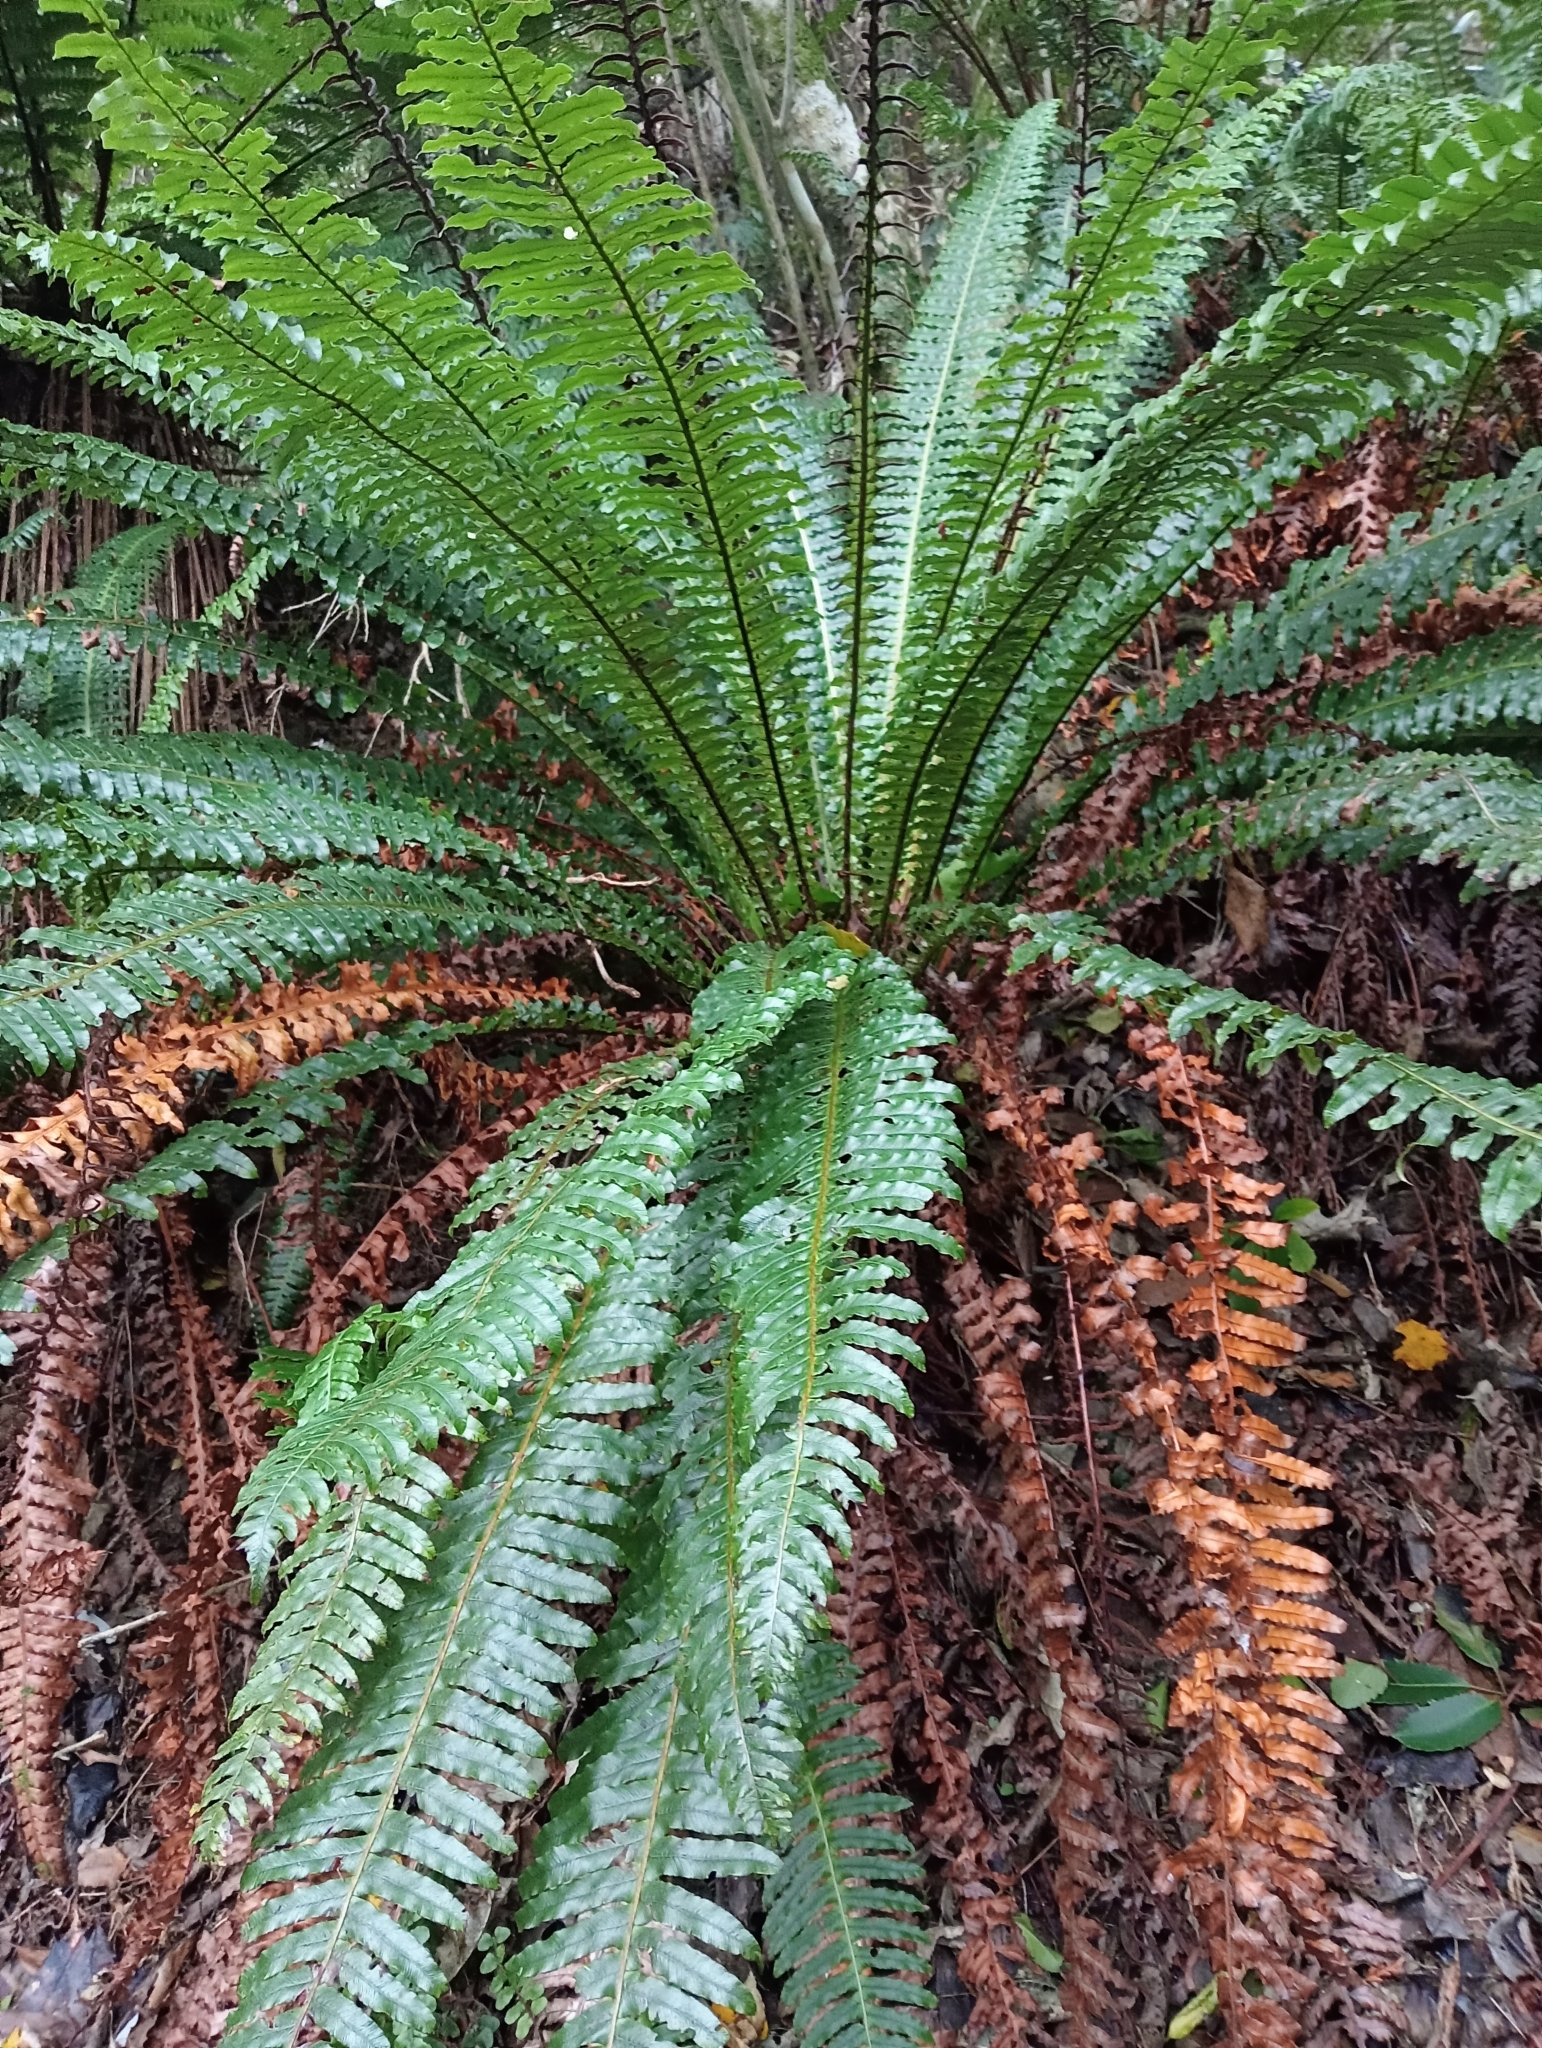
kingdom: Plantae
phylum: Tracheophyta
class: Polypodiopsida
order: Polypodiales
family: Blechnaceae
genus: Lomaria
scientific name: Lomaria discolor
